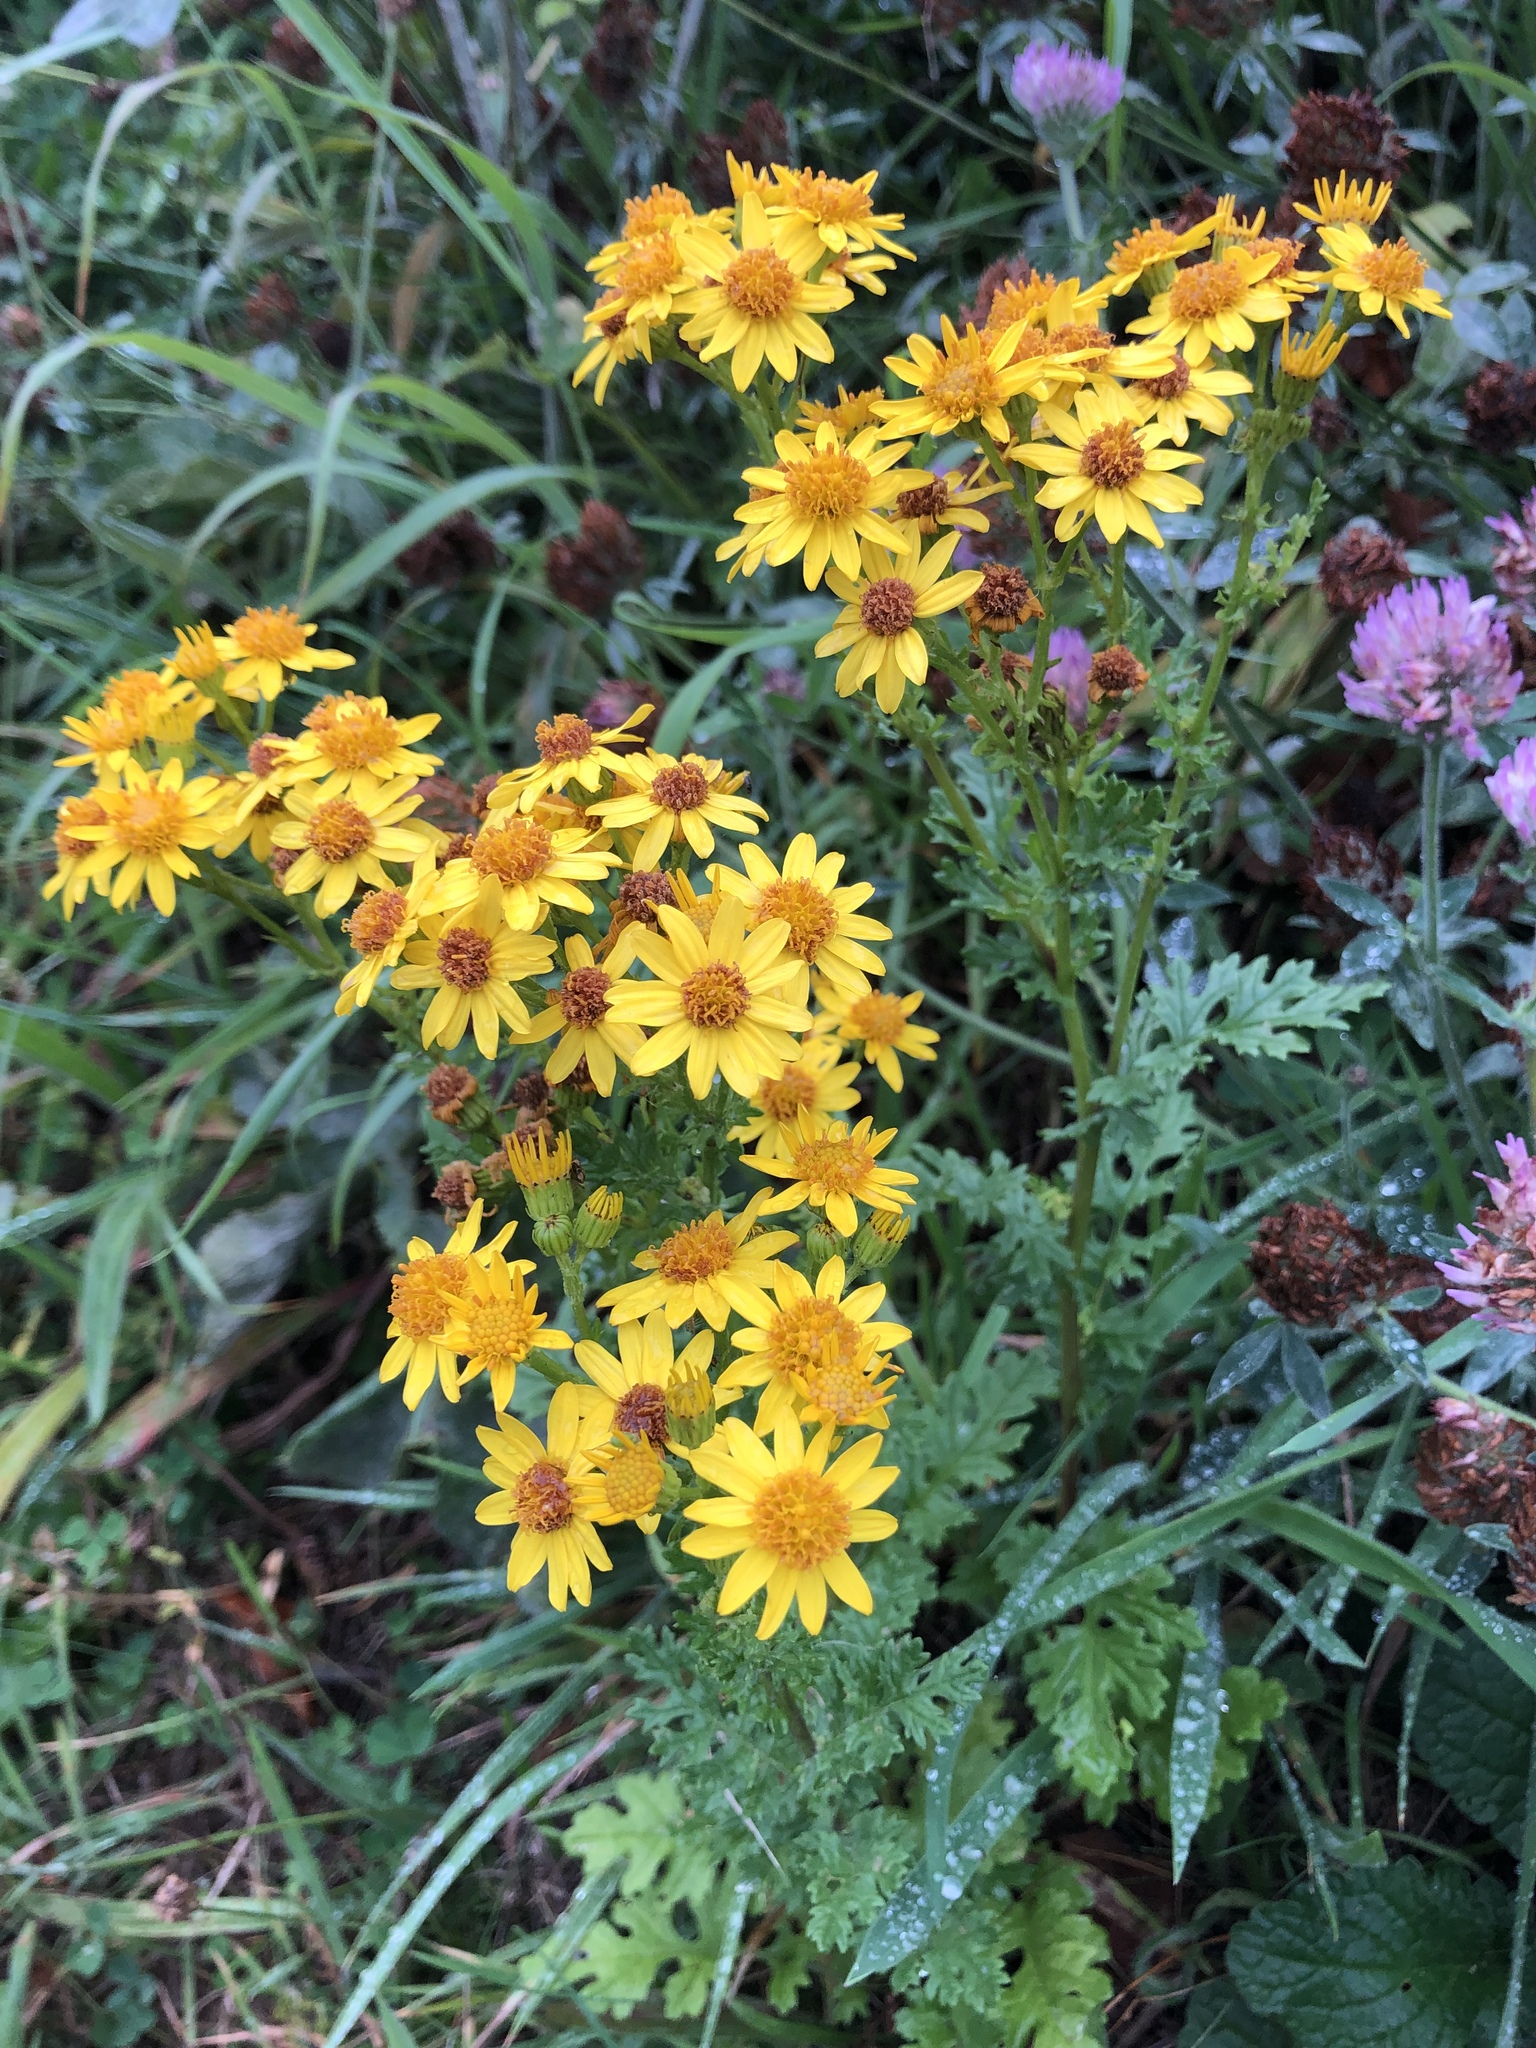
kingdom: Plantae
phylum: Tracheophyta
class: Magnoliopsida
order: Asterales
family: Asteraceae
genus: Jacobaea
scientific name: Jacobaea vulgaris
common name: Stinking willie
